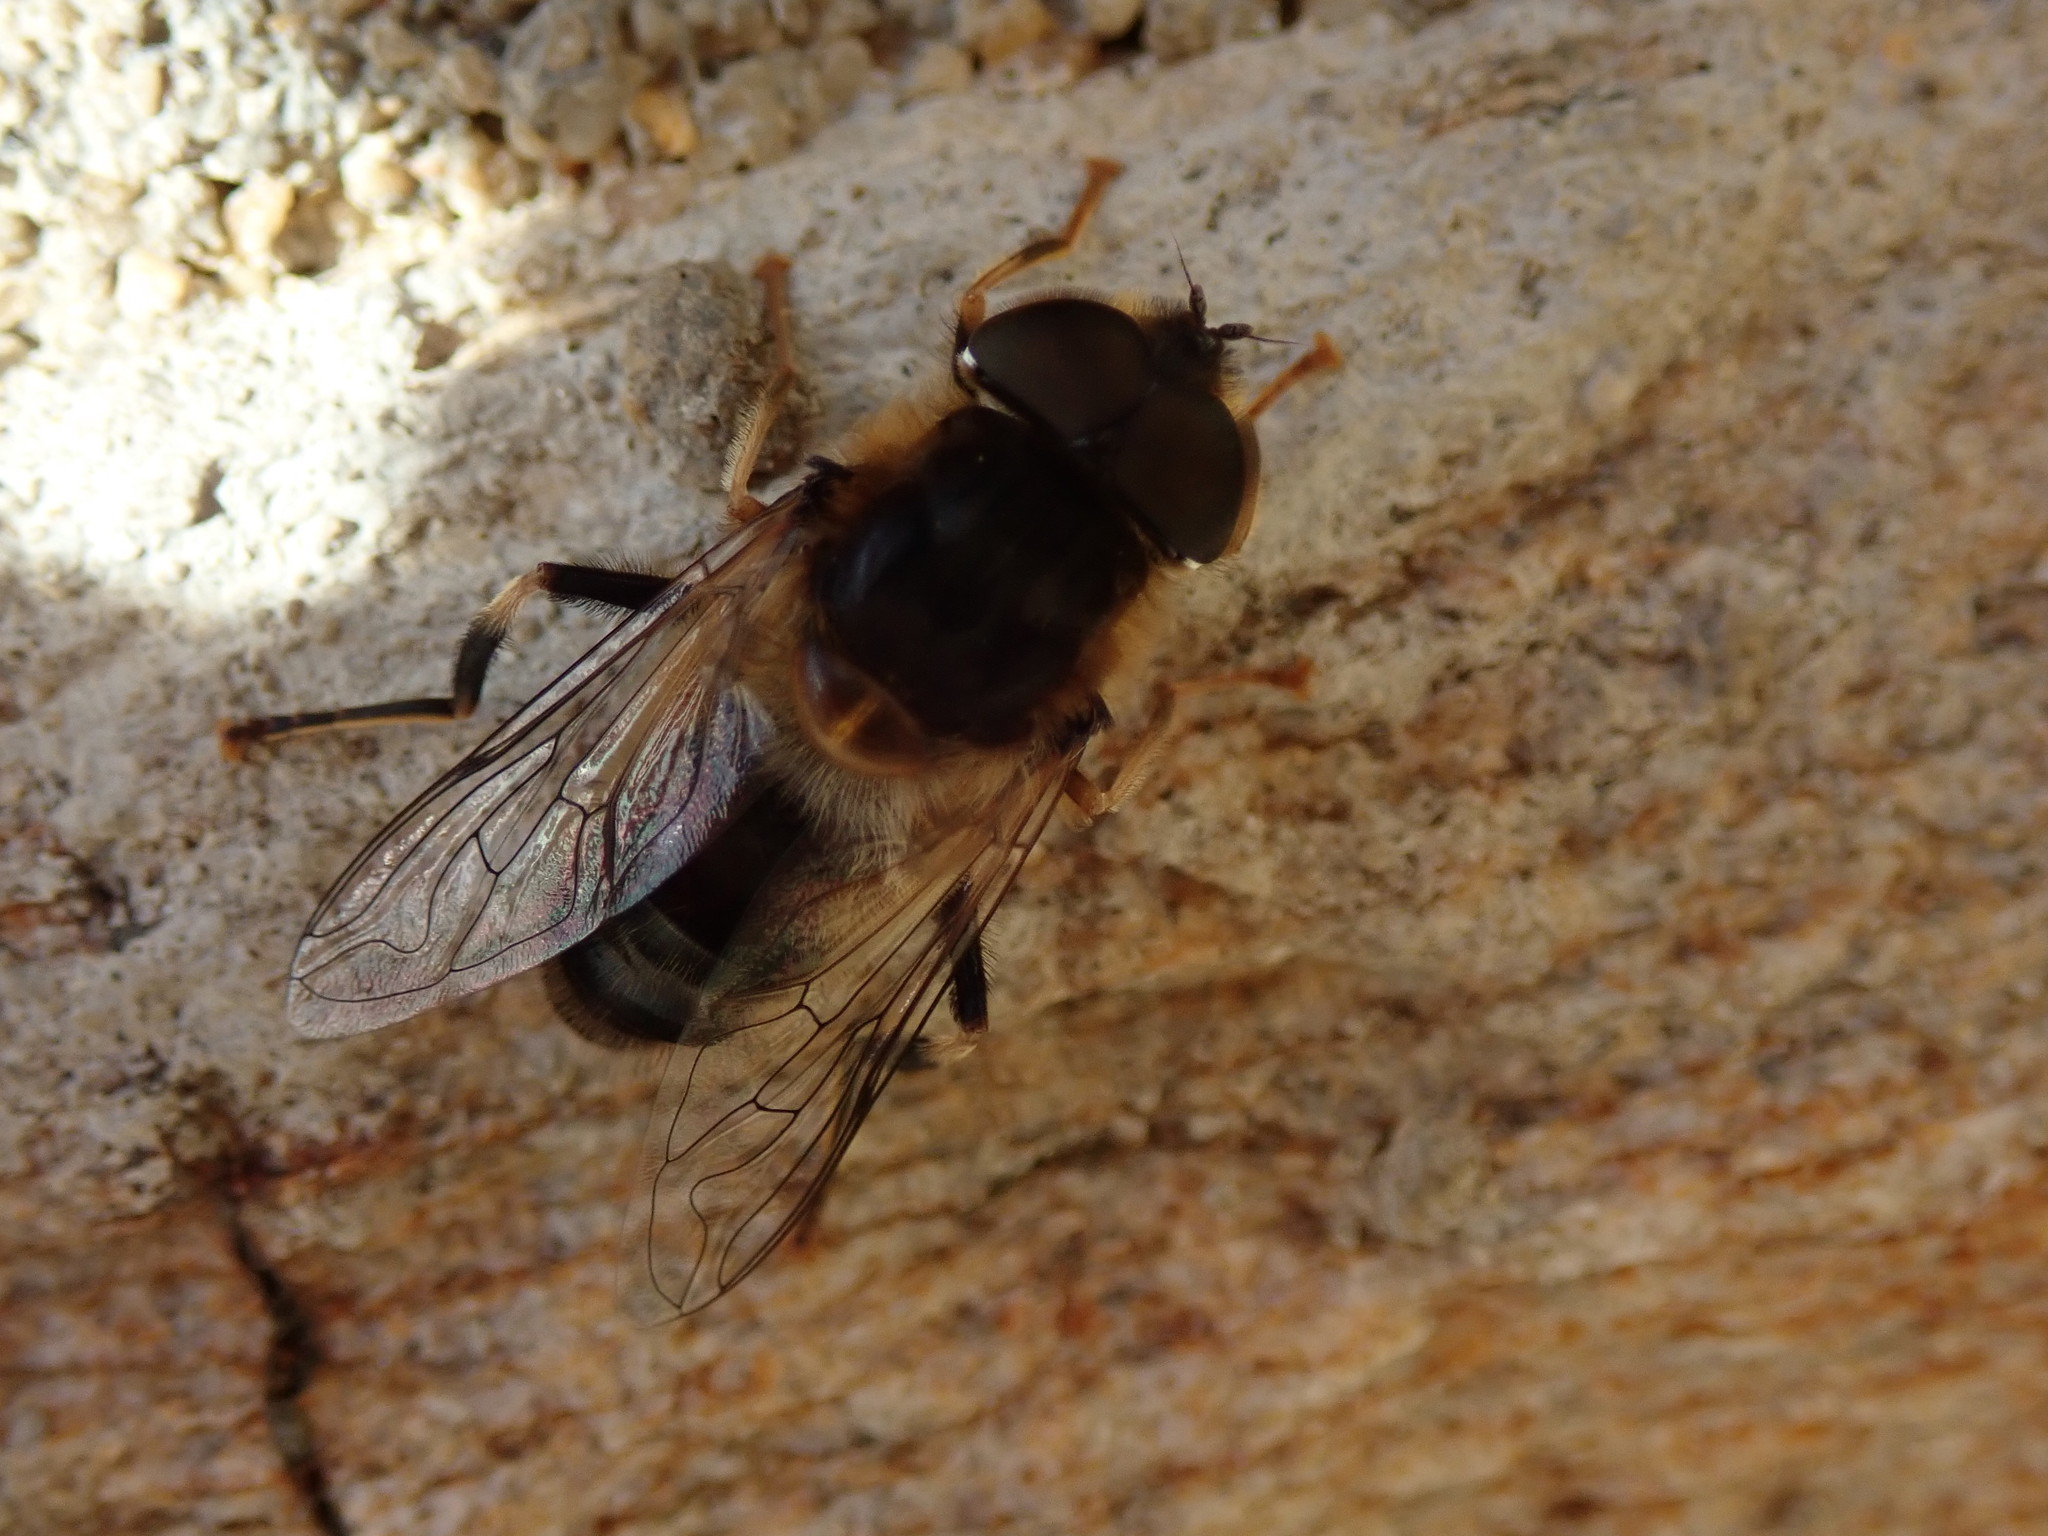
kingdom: Animalia
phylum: Arthropoda
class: Insecta
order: Diptera
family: Syrphidae
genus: Eristalis
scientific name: Eristalis pertinax
